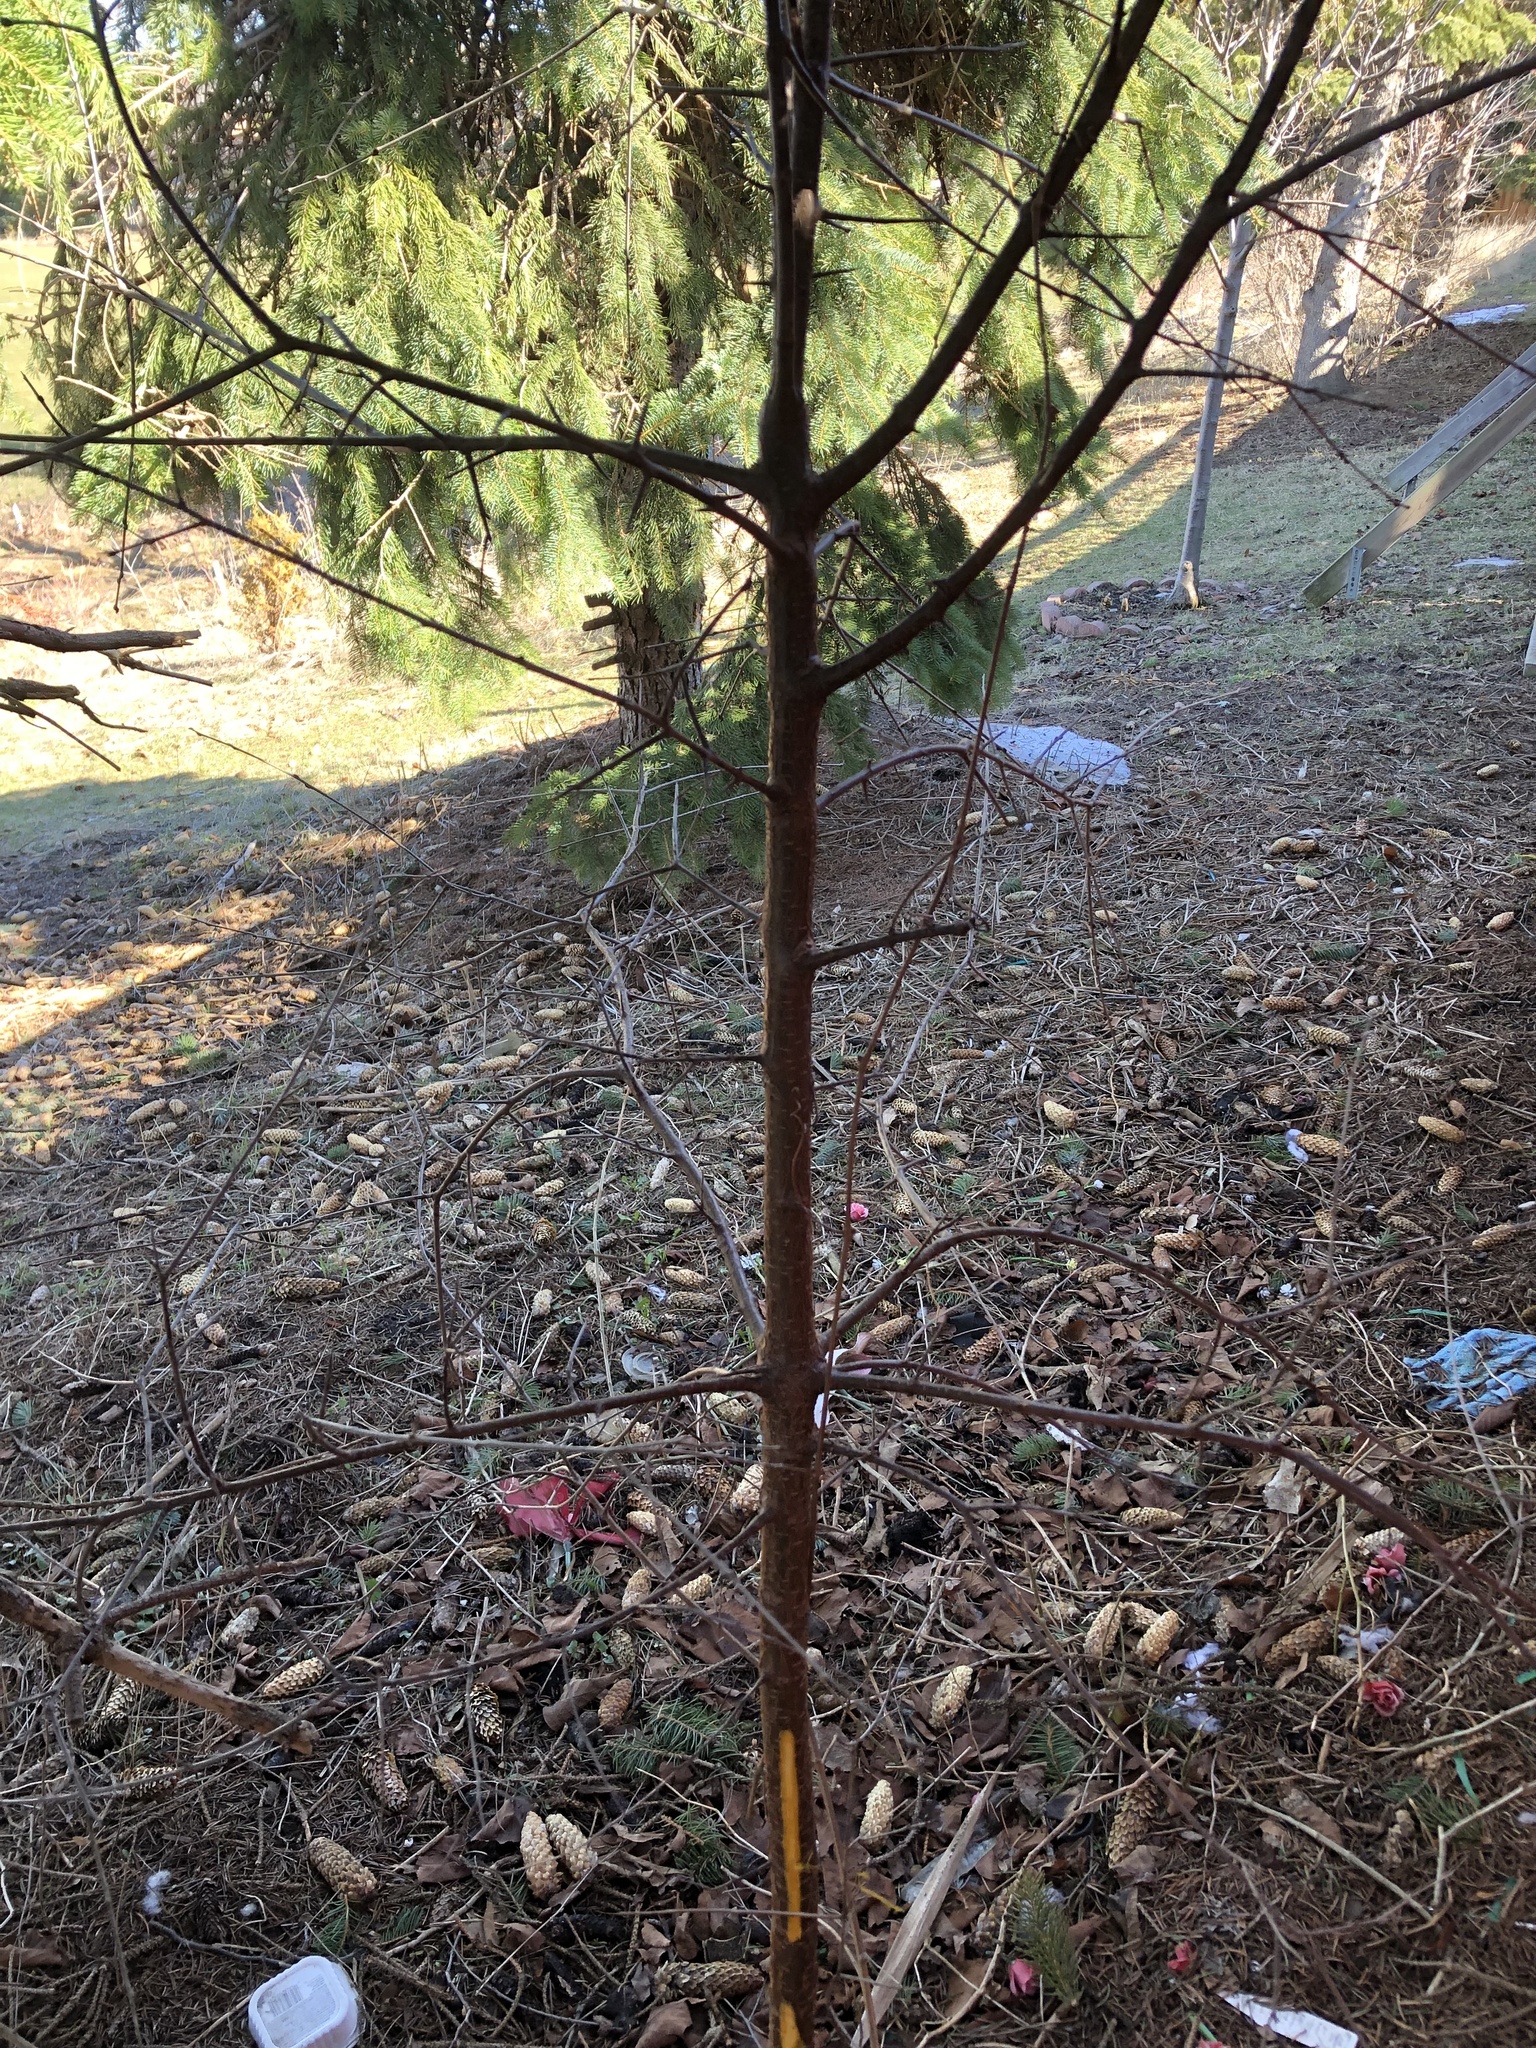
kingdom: Plantae
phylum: Tracheophyta
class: Magnoliopsida
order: Rosales
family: Rhamnaceae
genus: Rhamnus
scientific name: Rhamnus cathartica
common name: Common buckthorn
